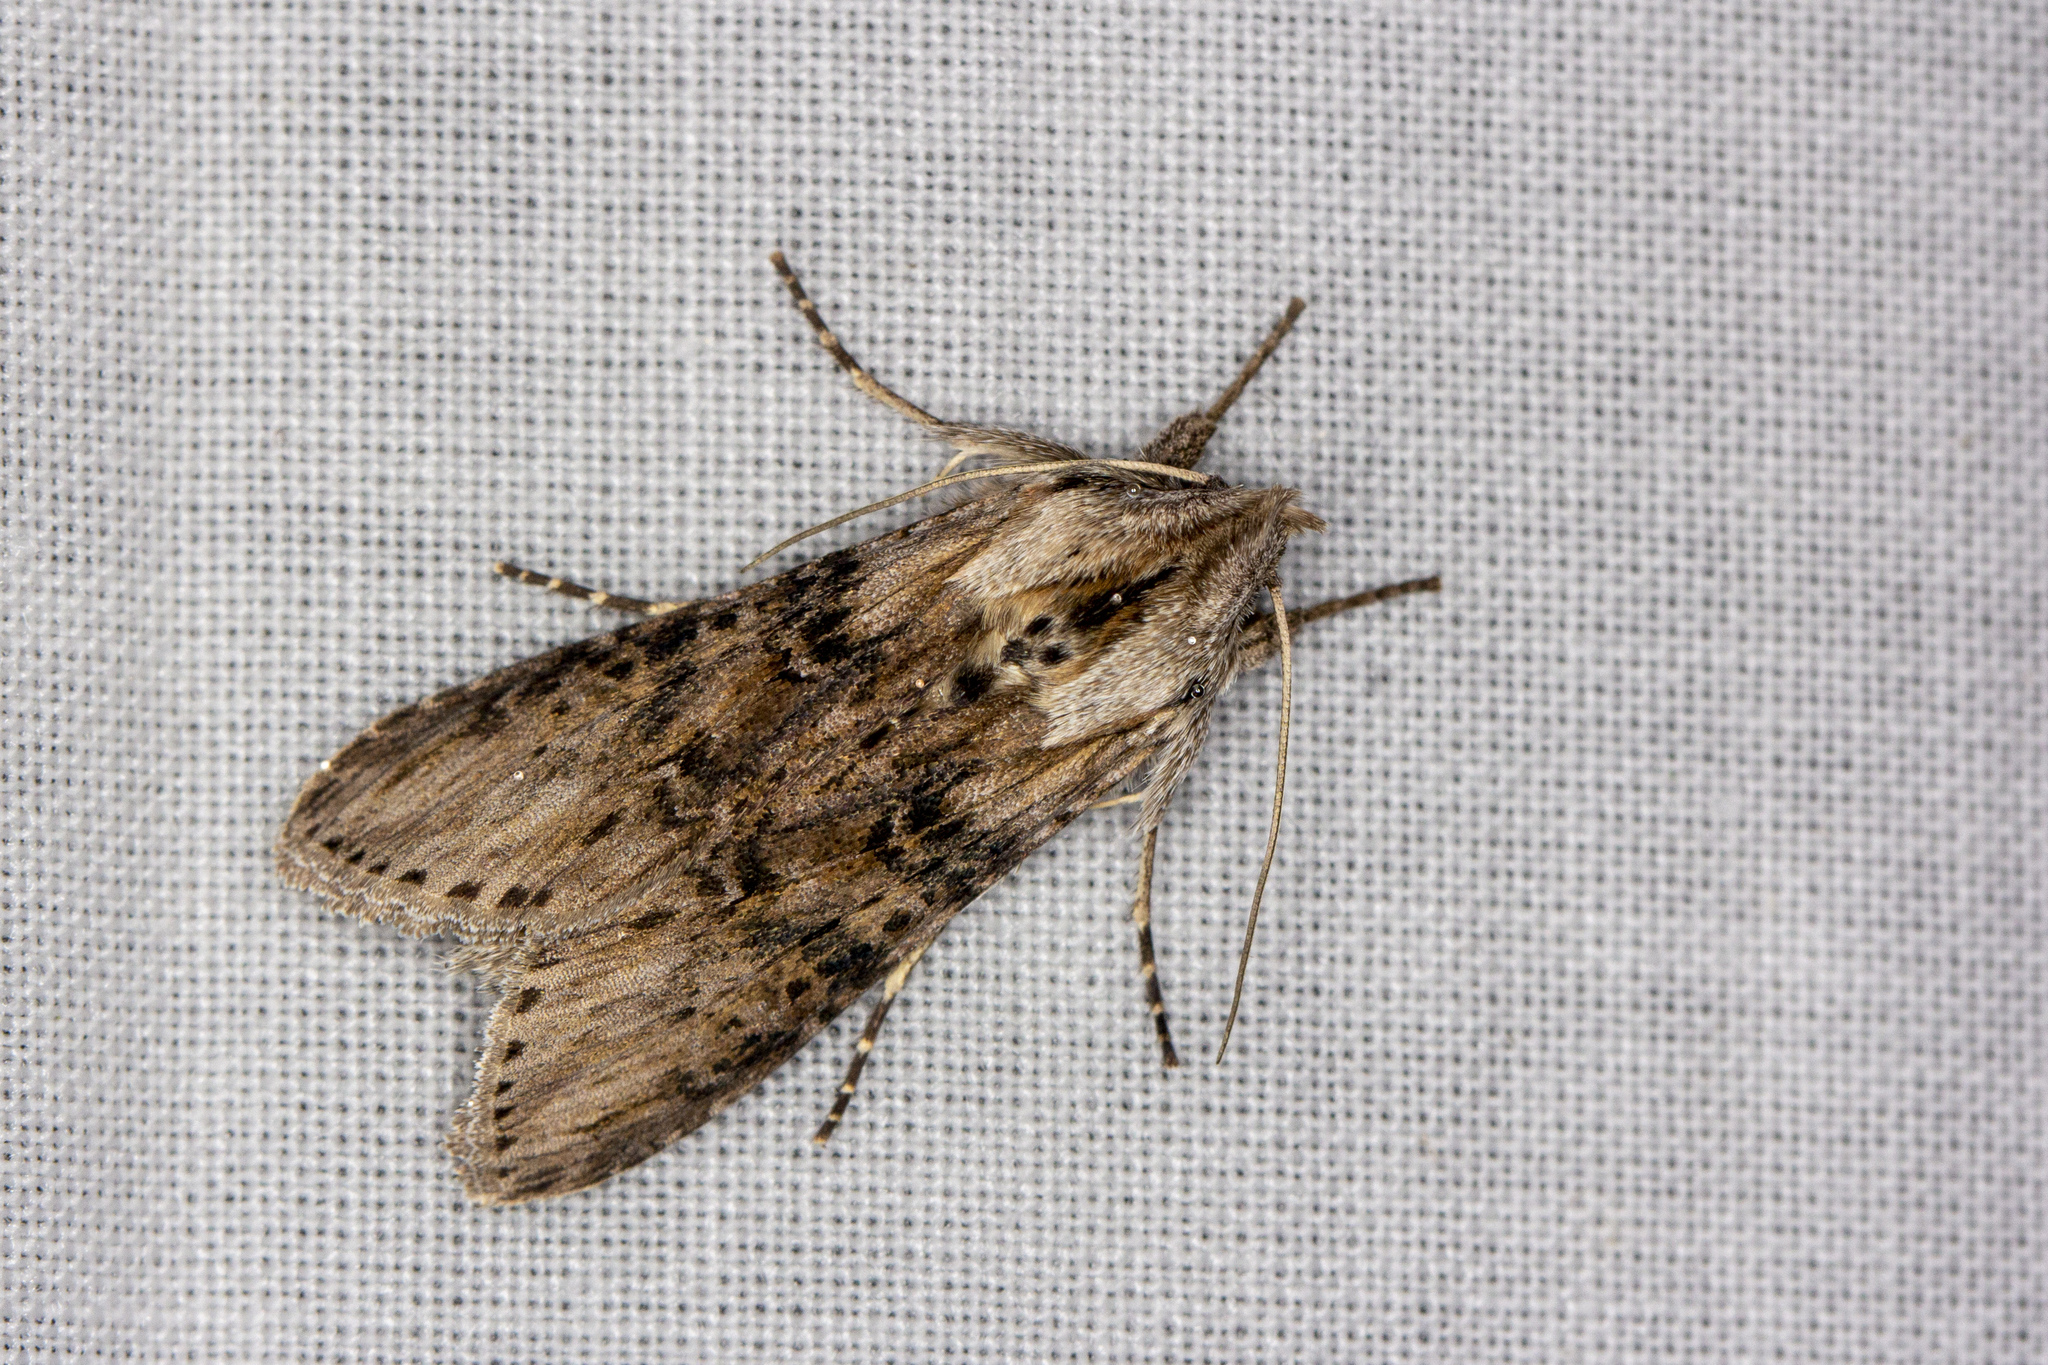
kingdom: Animalia
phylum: Arthropoda
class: Insecta
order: Lepidoptera
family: Noctuidae
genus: Cucullia
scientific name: Cucullia absinthii
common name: Wormwood
